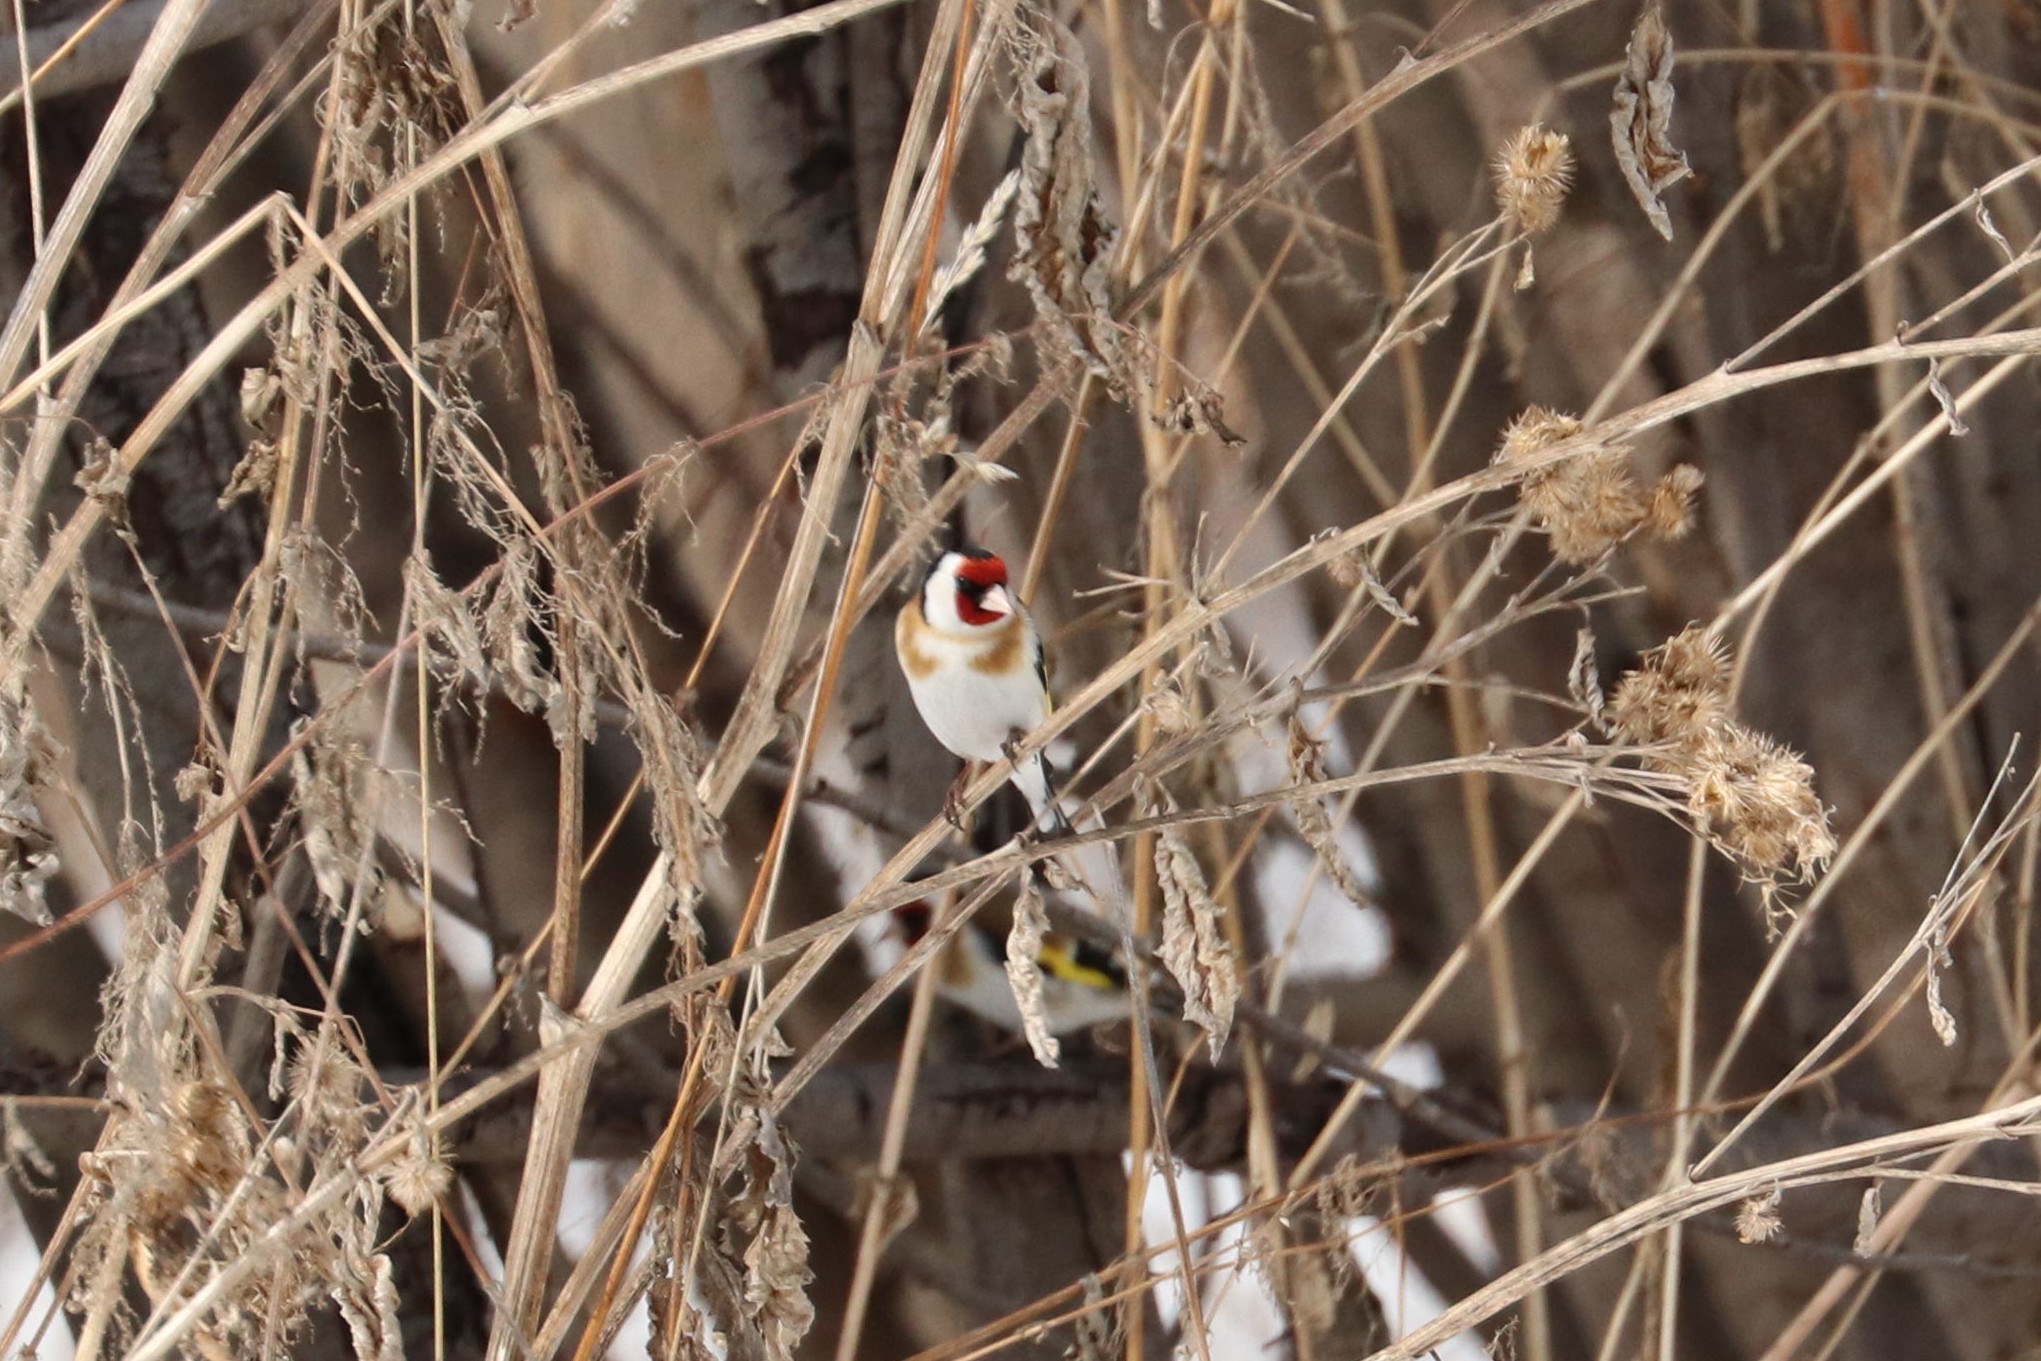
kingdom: Animalia
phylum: Chordata
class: Aves
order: Passeriformes
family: Fringillidae
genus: Carduelis
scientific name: Carduelis carduelis
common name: European goldfinch
